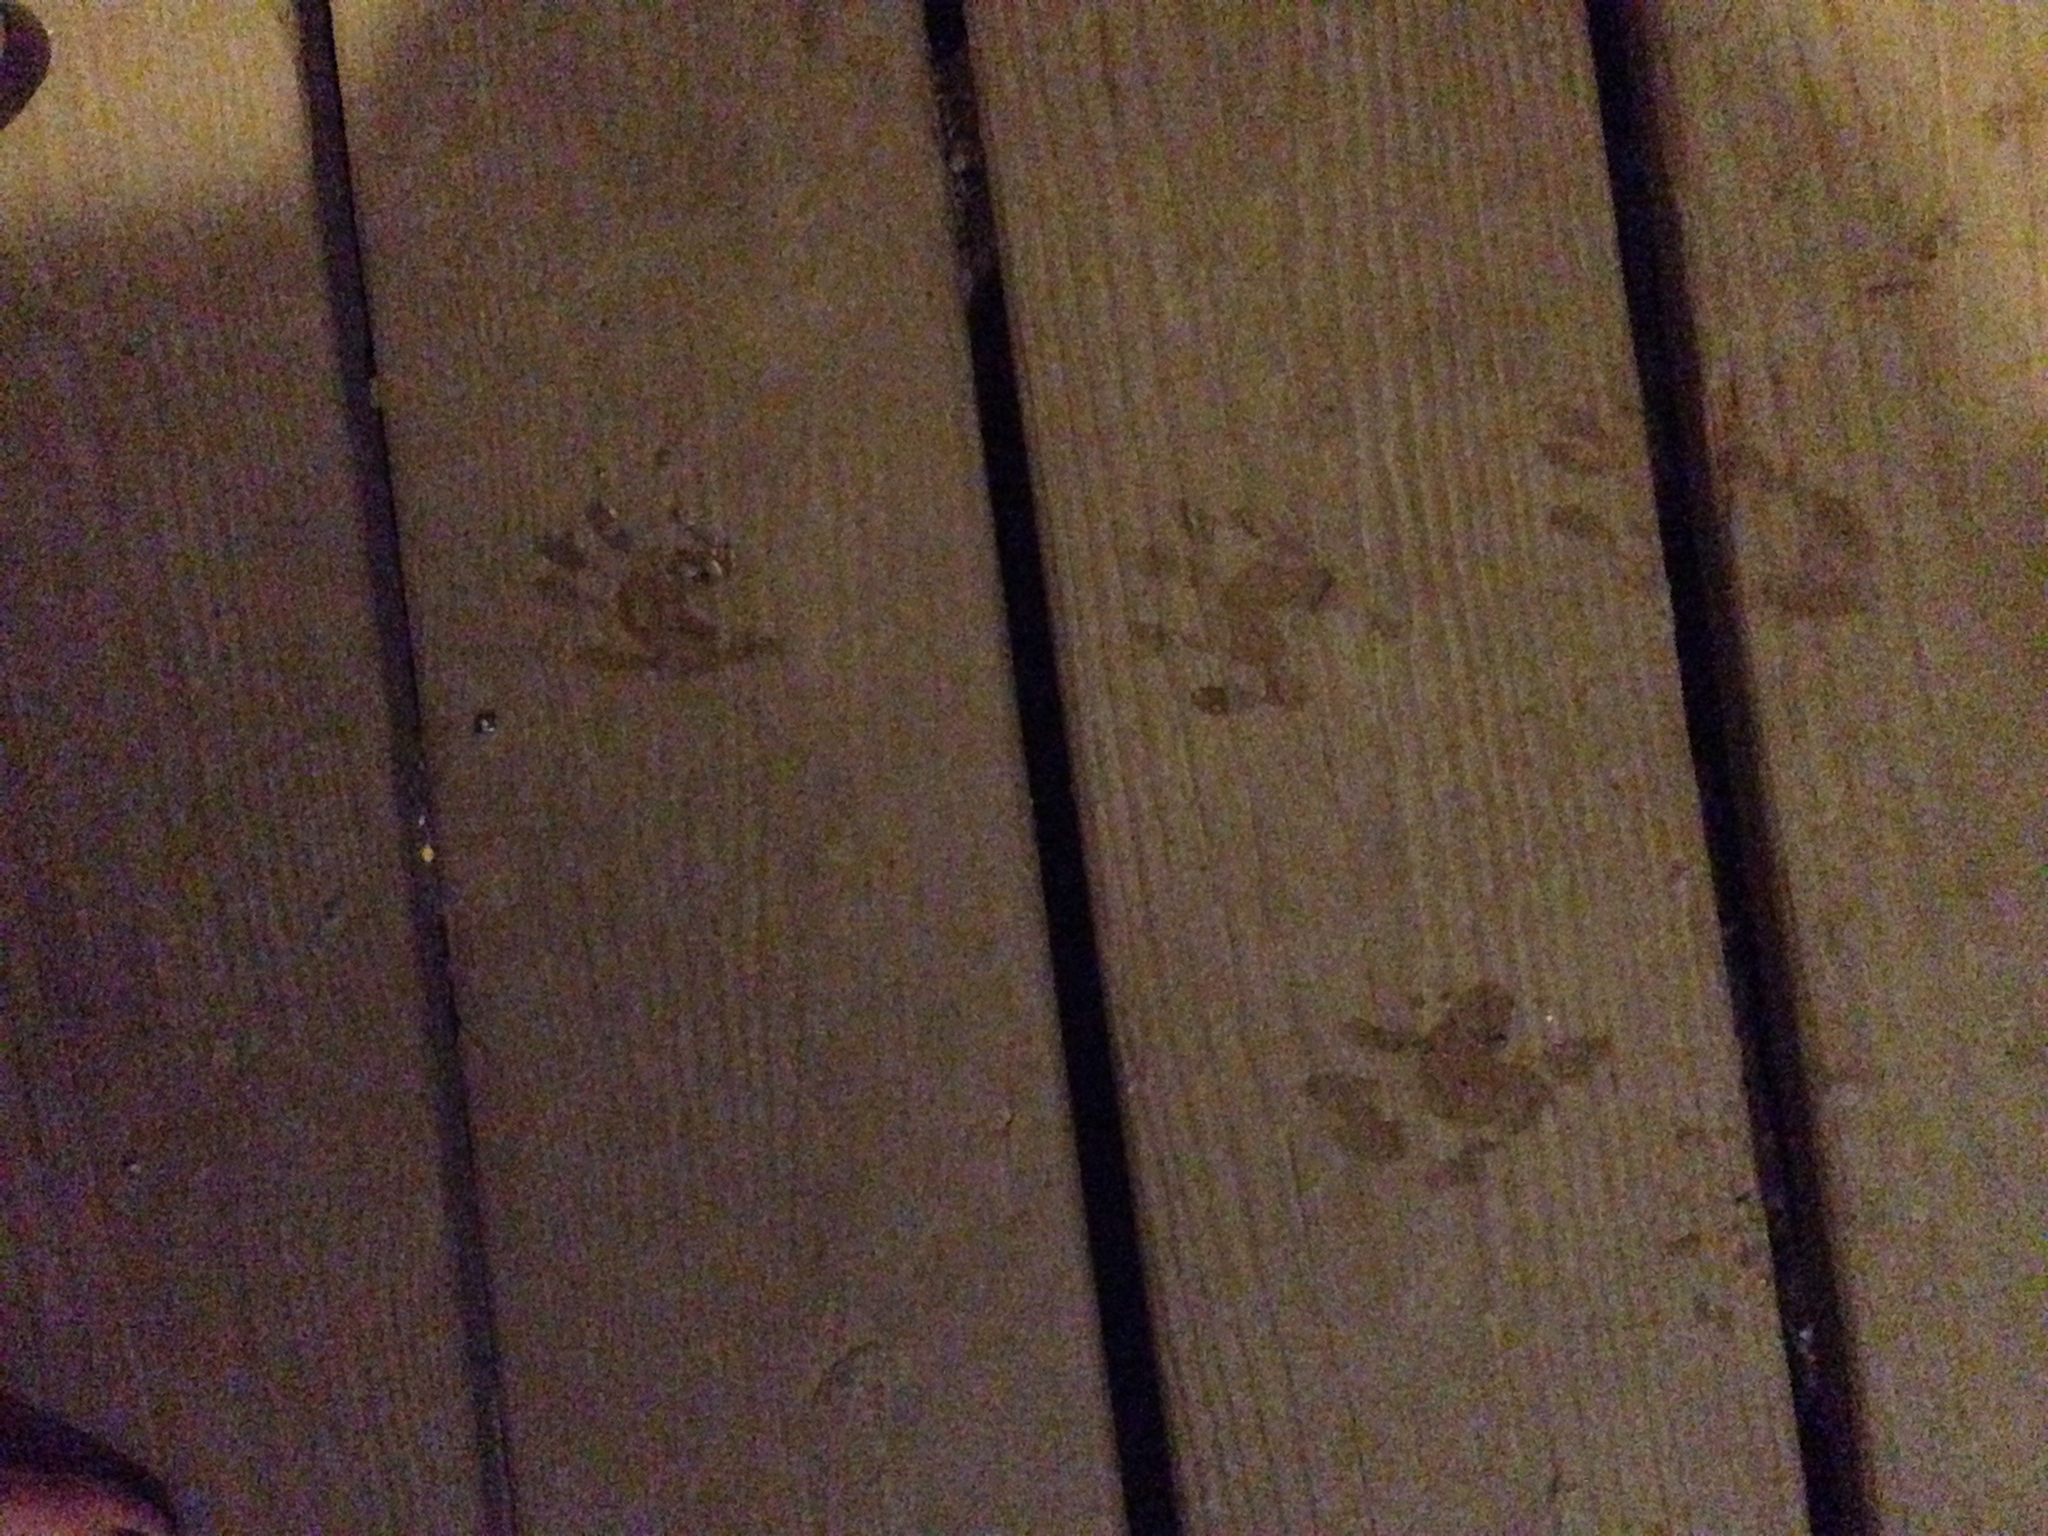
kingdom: Animalia
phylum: Chordata
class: Mammalia
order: Carnivora
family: Procyonidae
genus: Procyon
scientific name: Procyon lotor
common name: Raccoon
